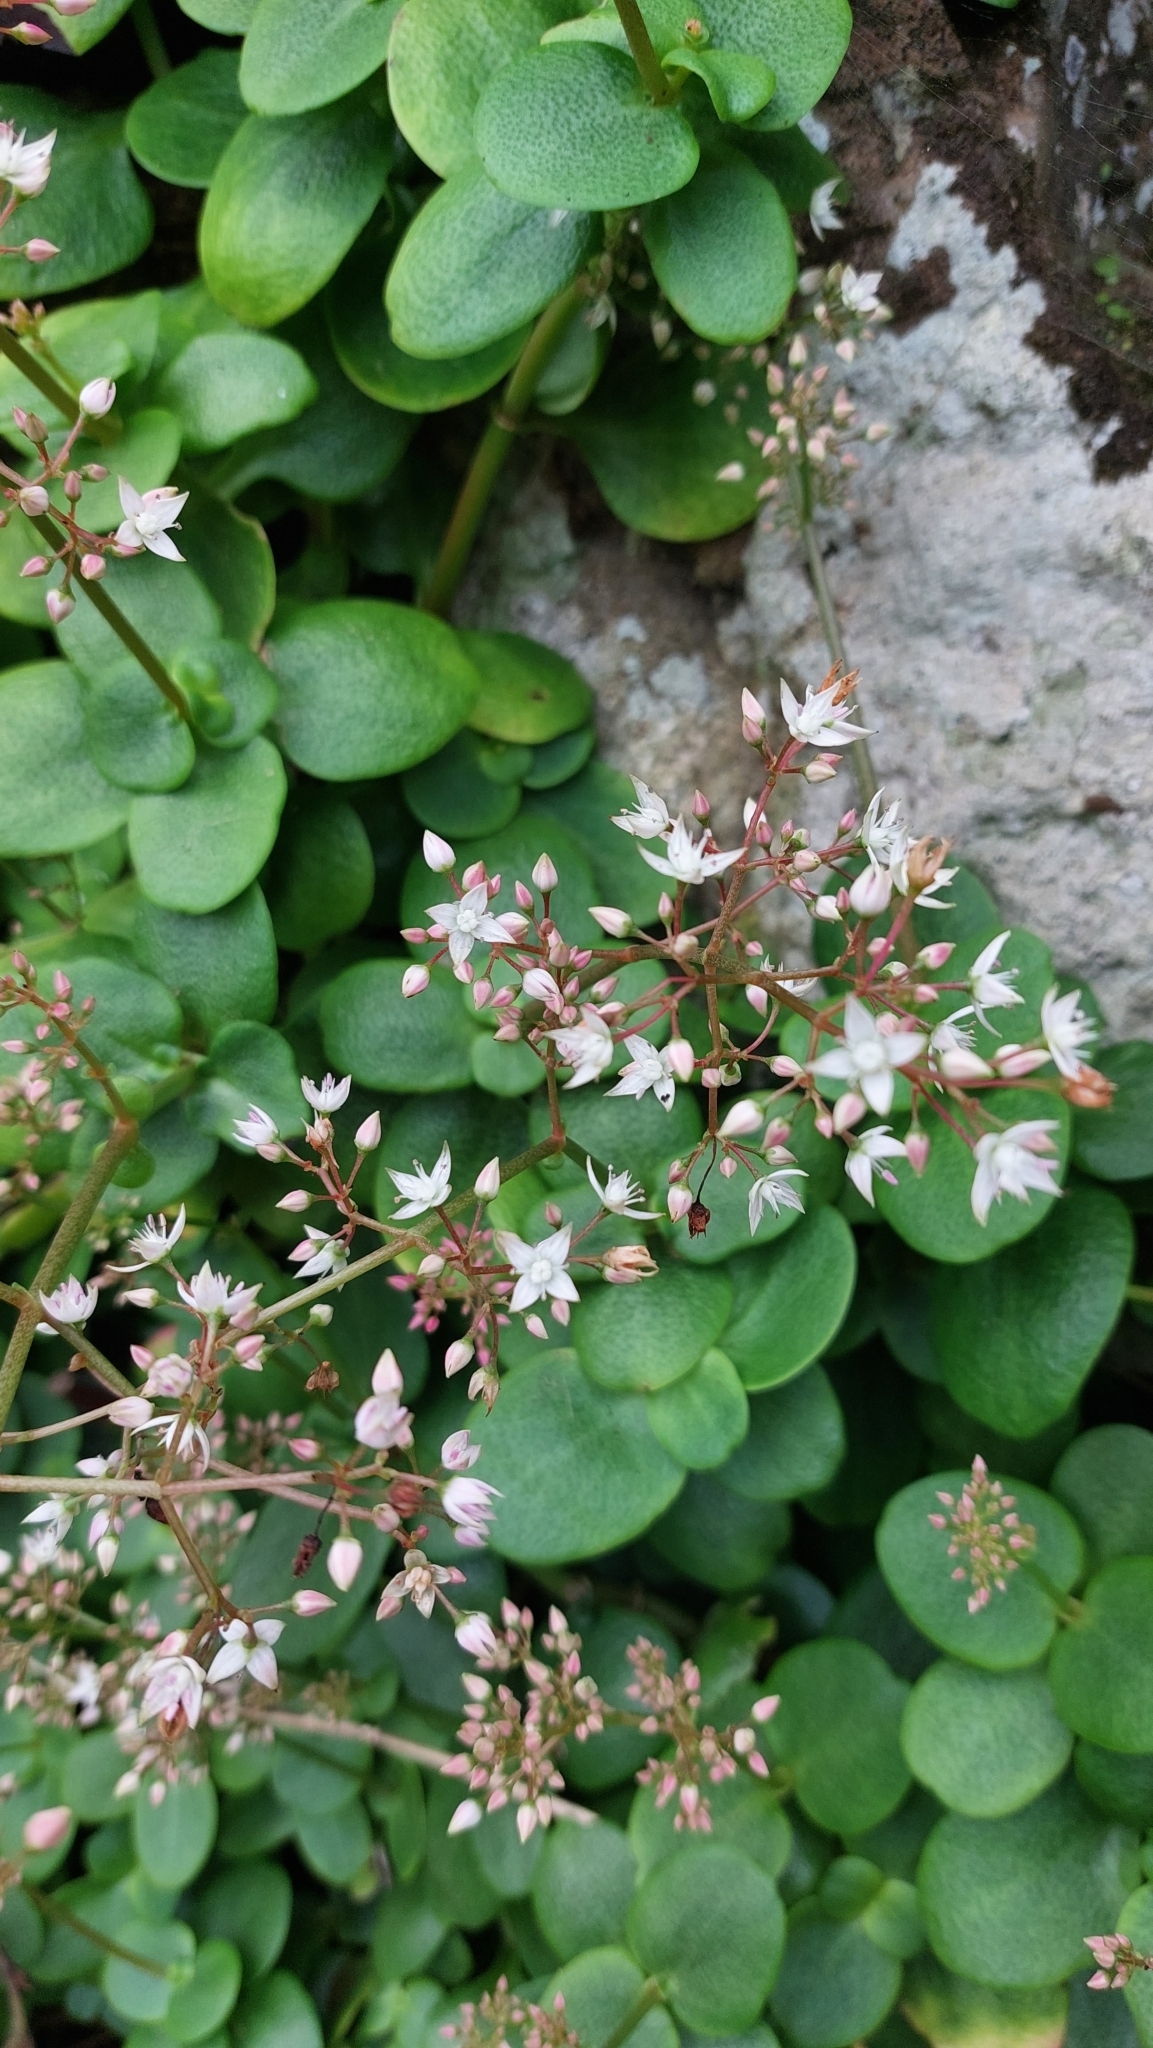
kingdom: Plantae
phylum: Tracheophyta
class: Magnoliopsida
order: Saxifragales
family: Crassulaceae
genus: Crassula
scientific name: Crassula multicava
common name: Cape province pygmyweed
